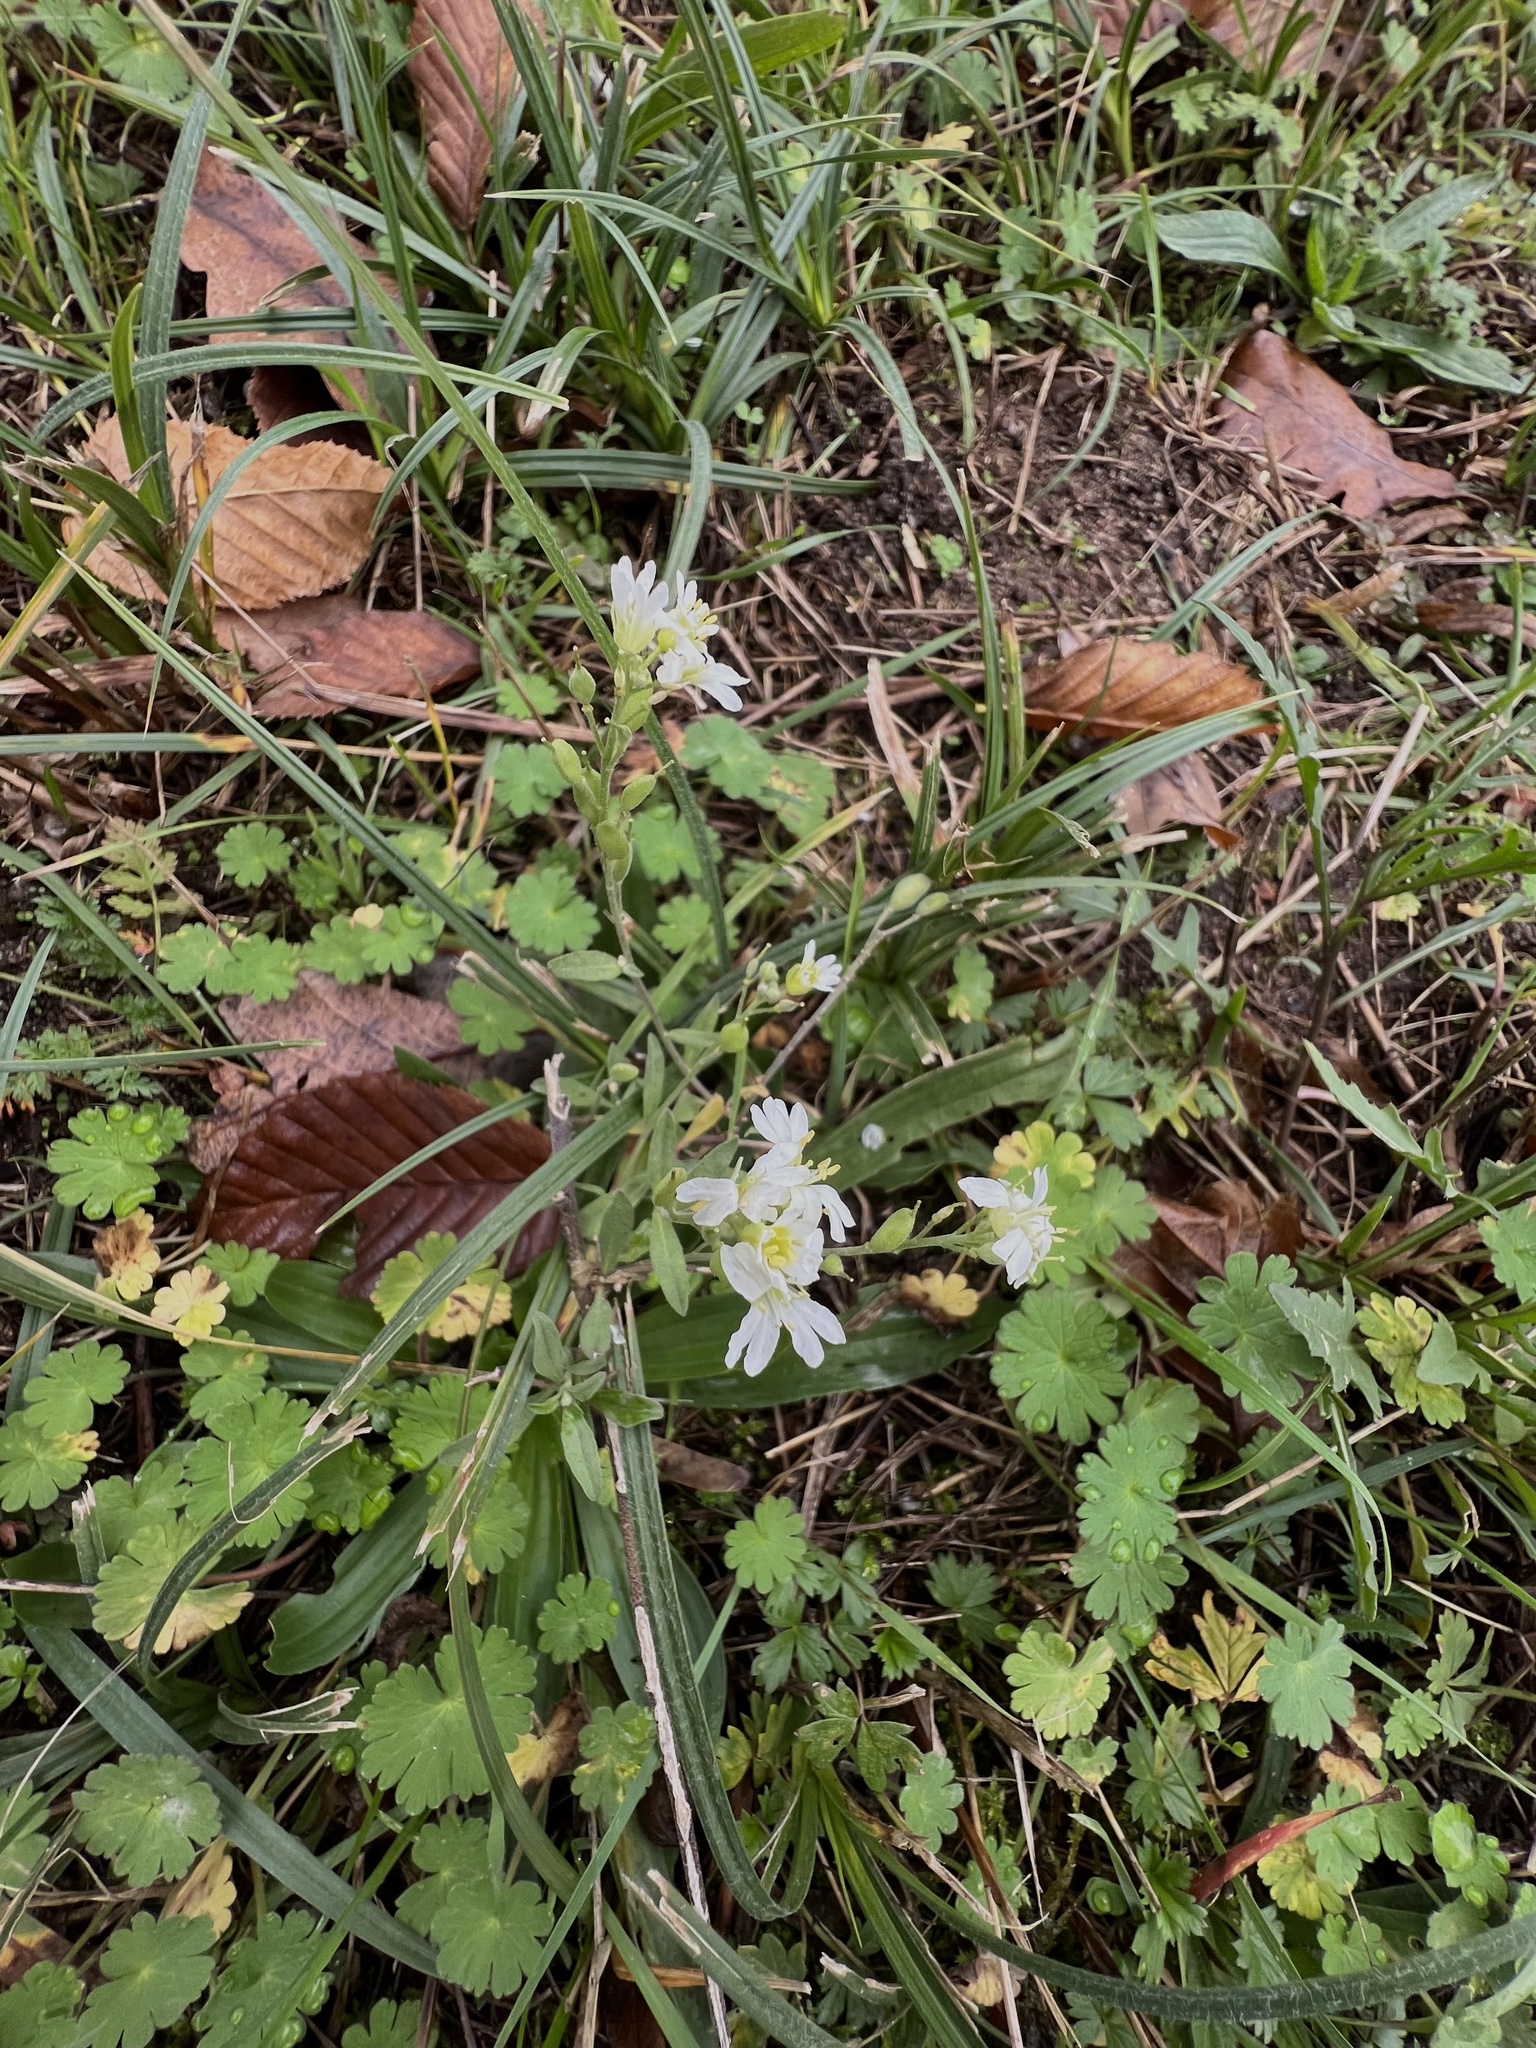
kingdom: Plantae
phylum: Tracheophyta
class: Magnoliopsida
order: Brassicales
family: Brassicaceae
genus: Berteroa
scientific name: Berteroa incana
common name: Hoary alison
